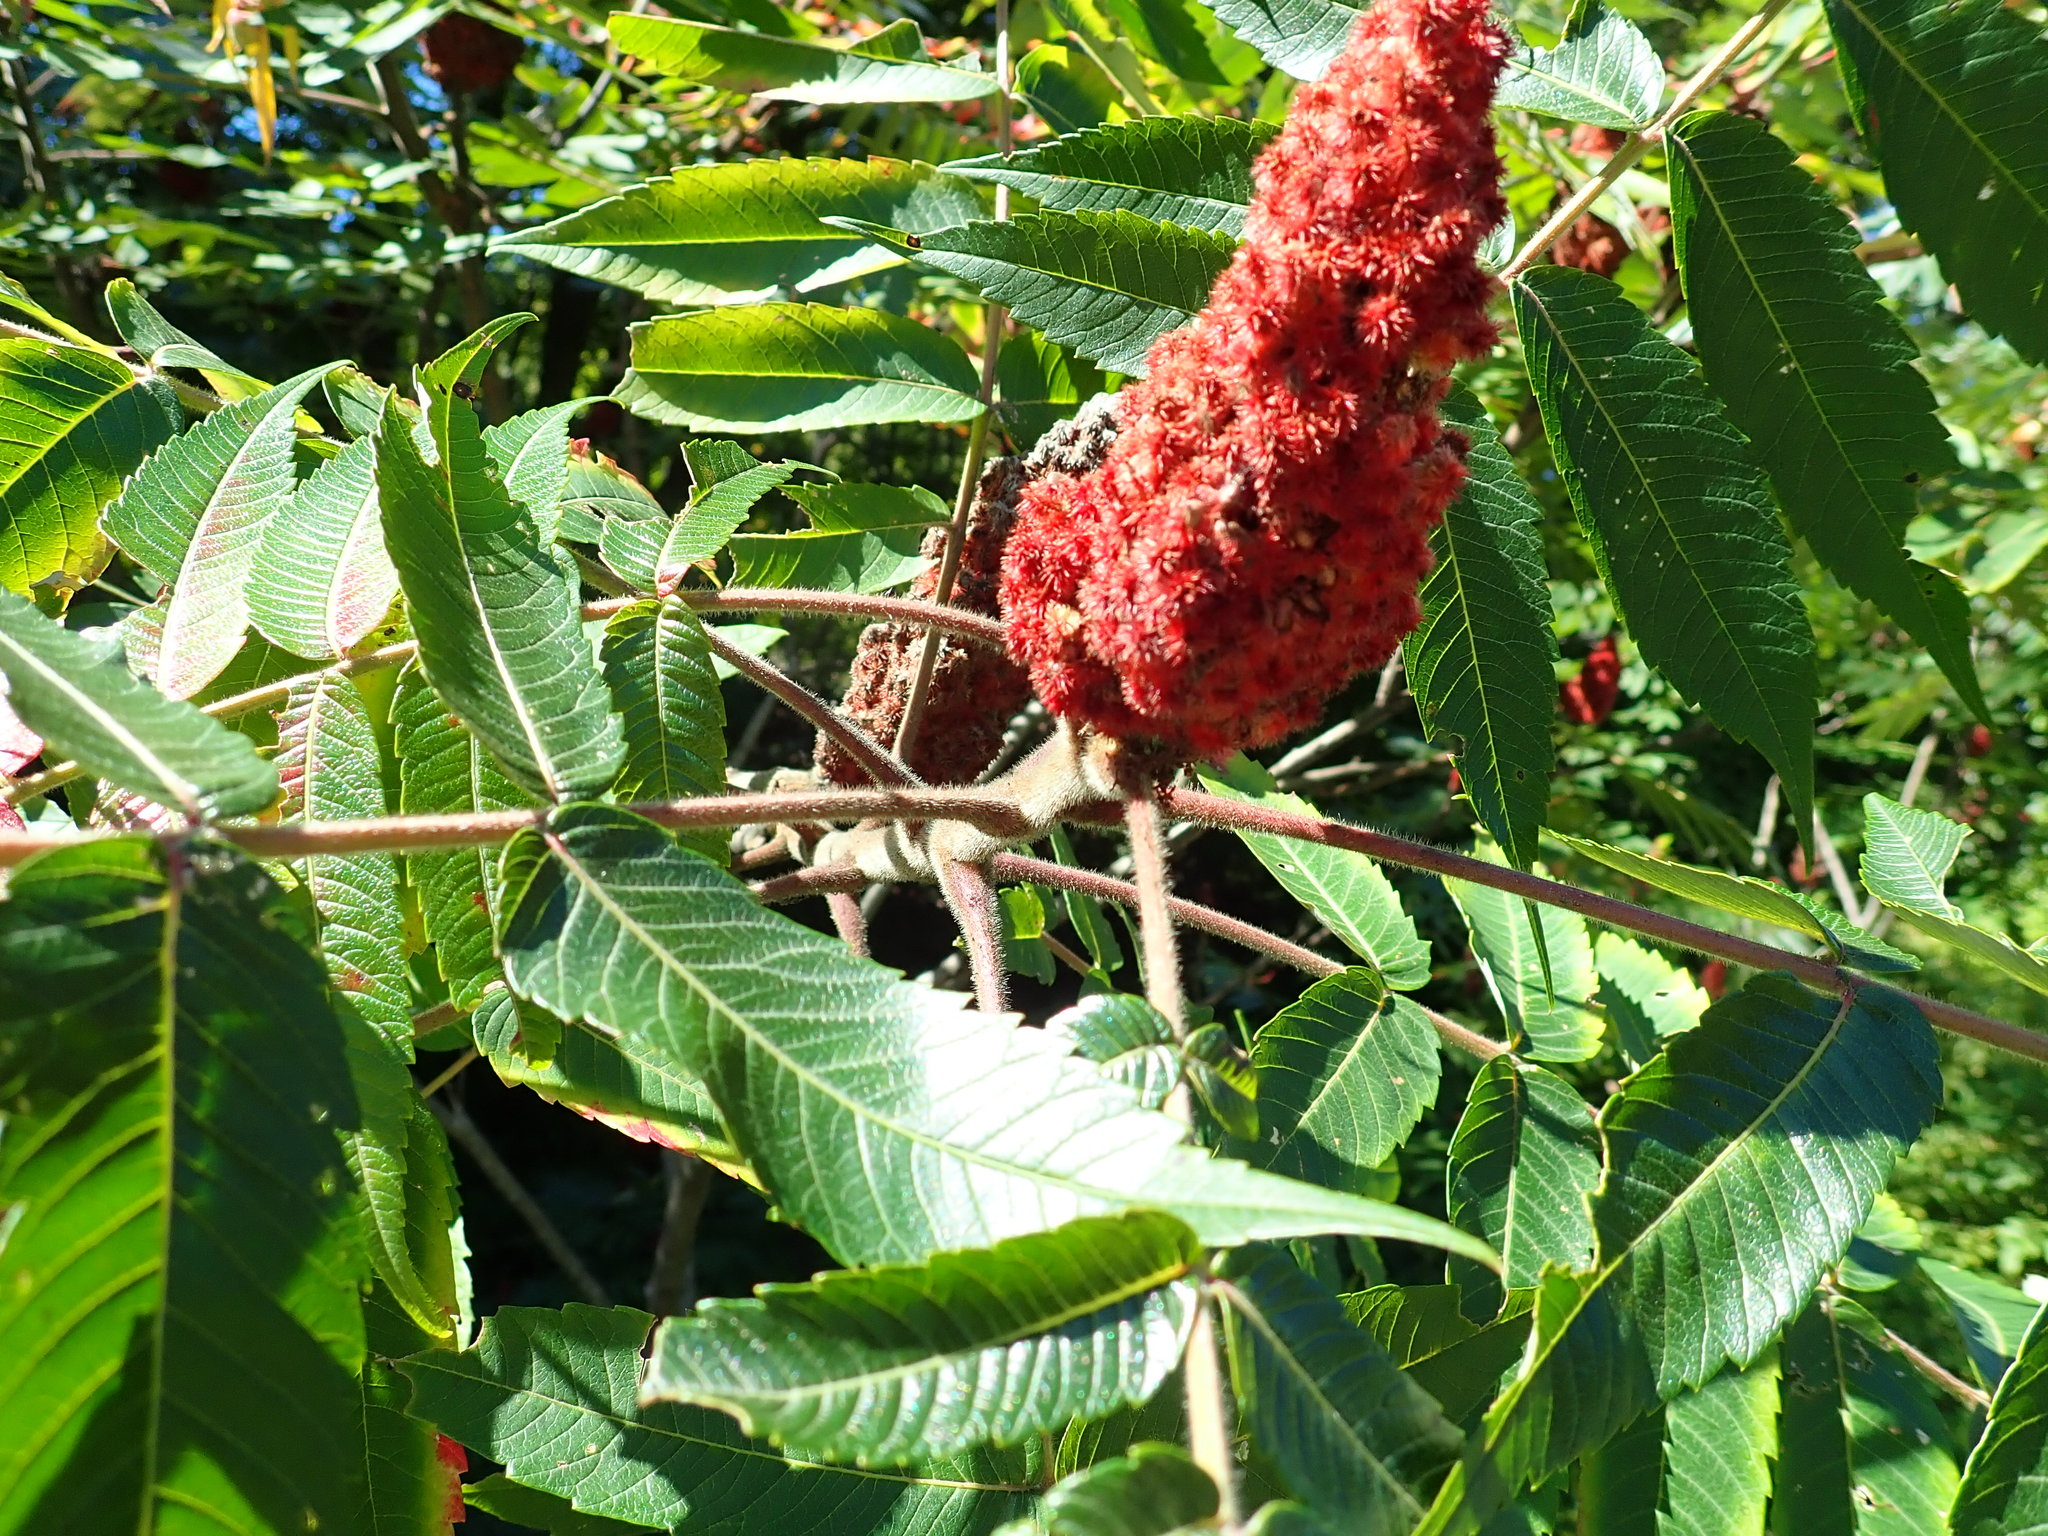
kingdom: Plantae
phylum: Tracheophyta
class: Magnoliopsida
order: Sapindales
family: Anacardiaceae
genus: Rhus
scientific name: Rhus typhina
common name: Staghorn sumac
